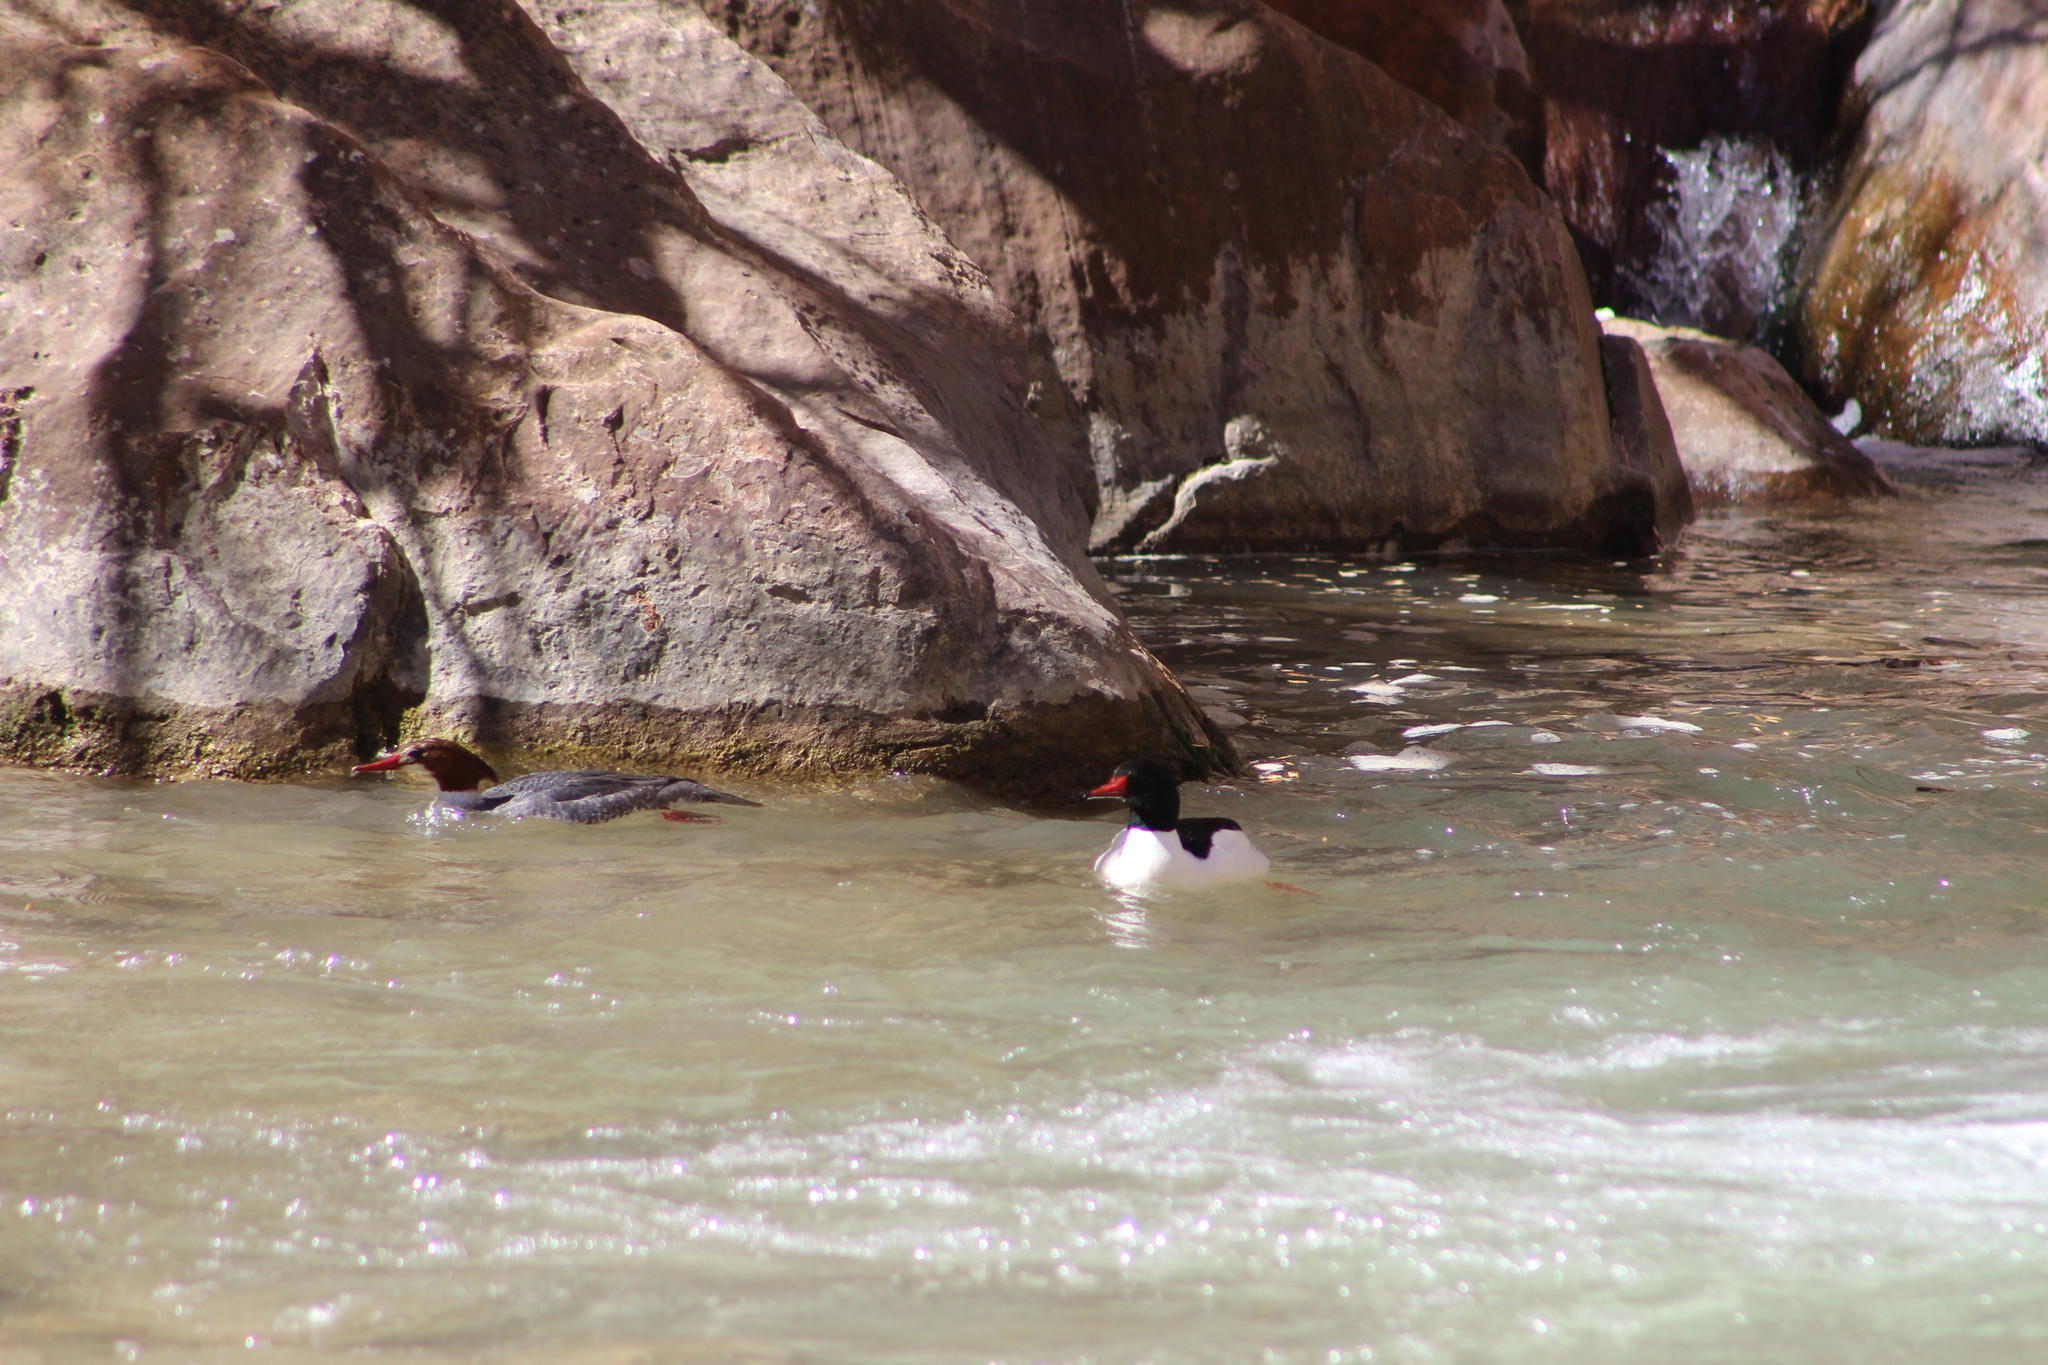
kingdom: Animalia
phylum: Chordata
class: Aves
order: Anseriformes
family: Anatidae
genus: Mergus
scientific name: Mergus merganser
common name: Common merganser
